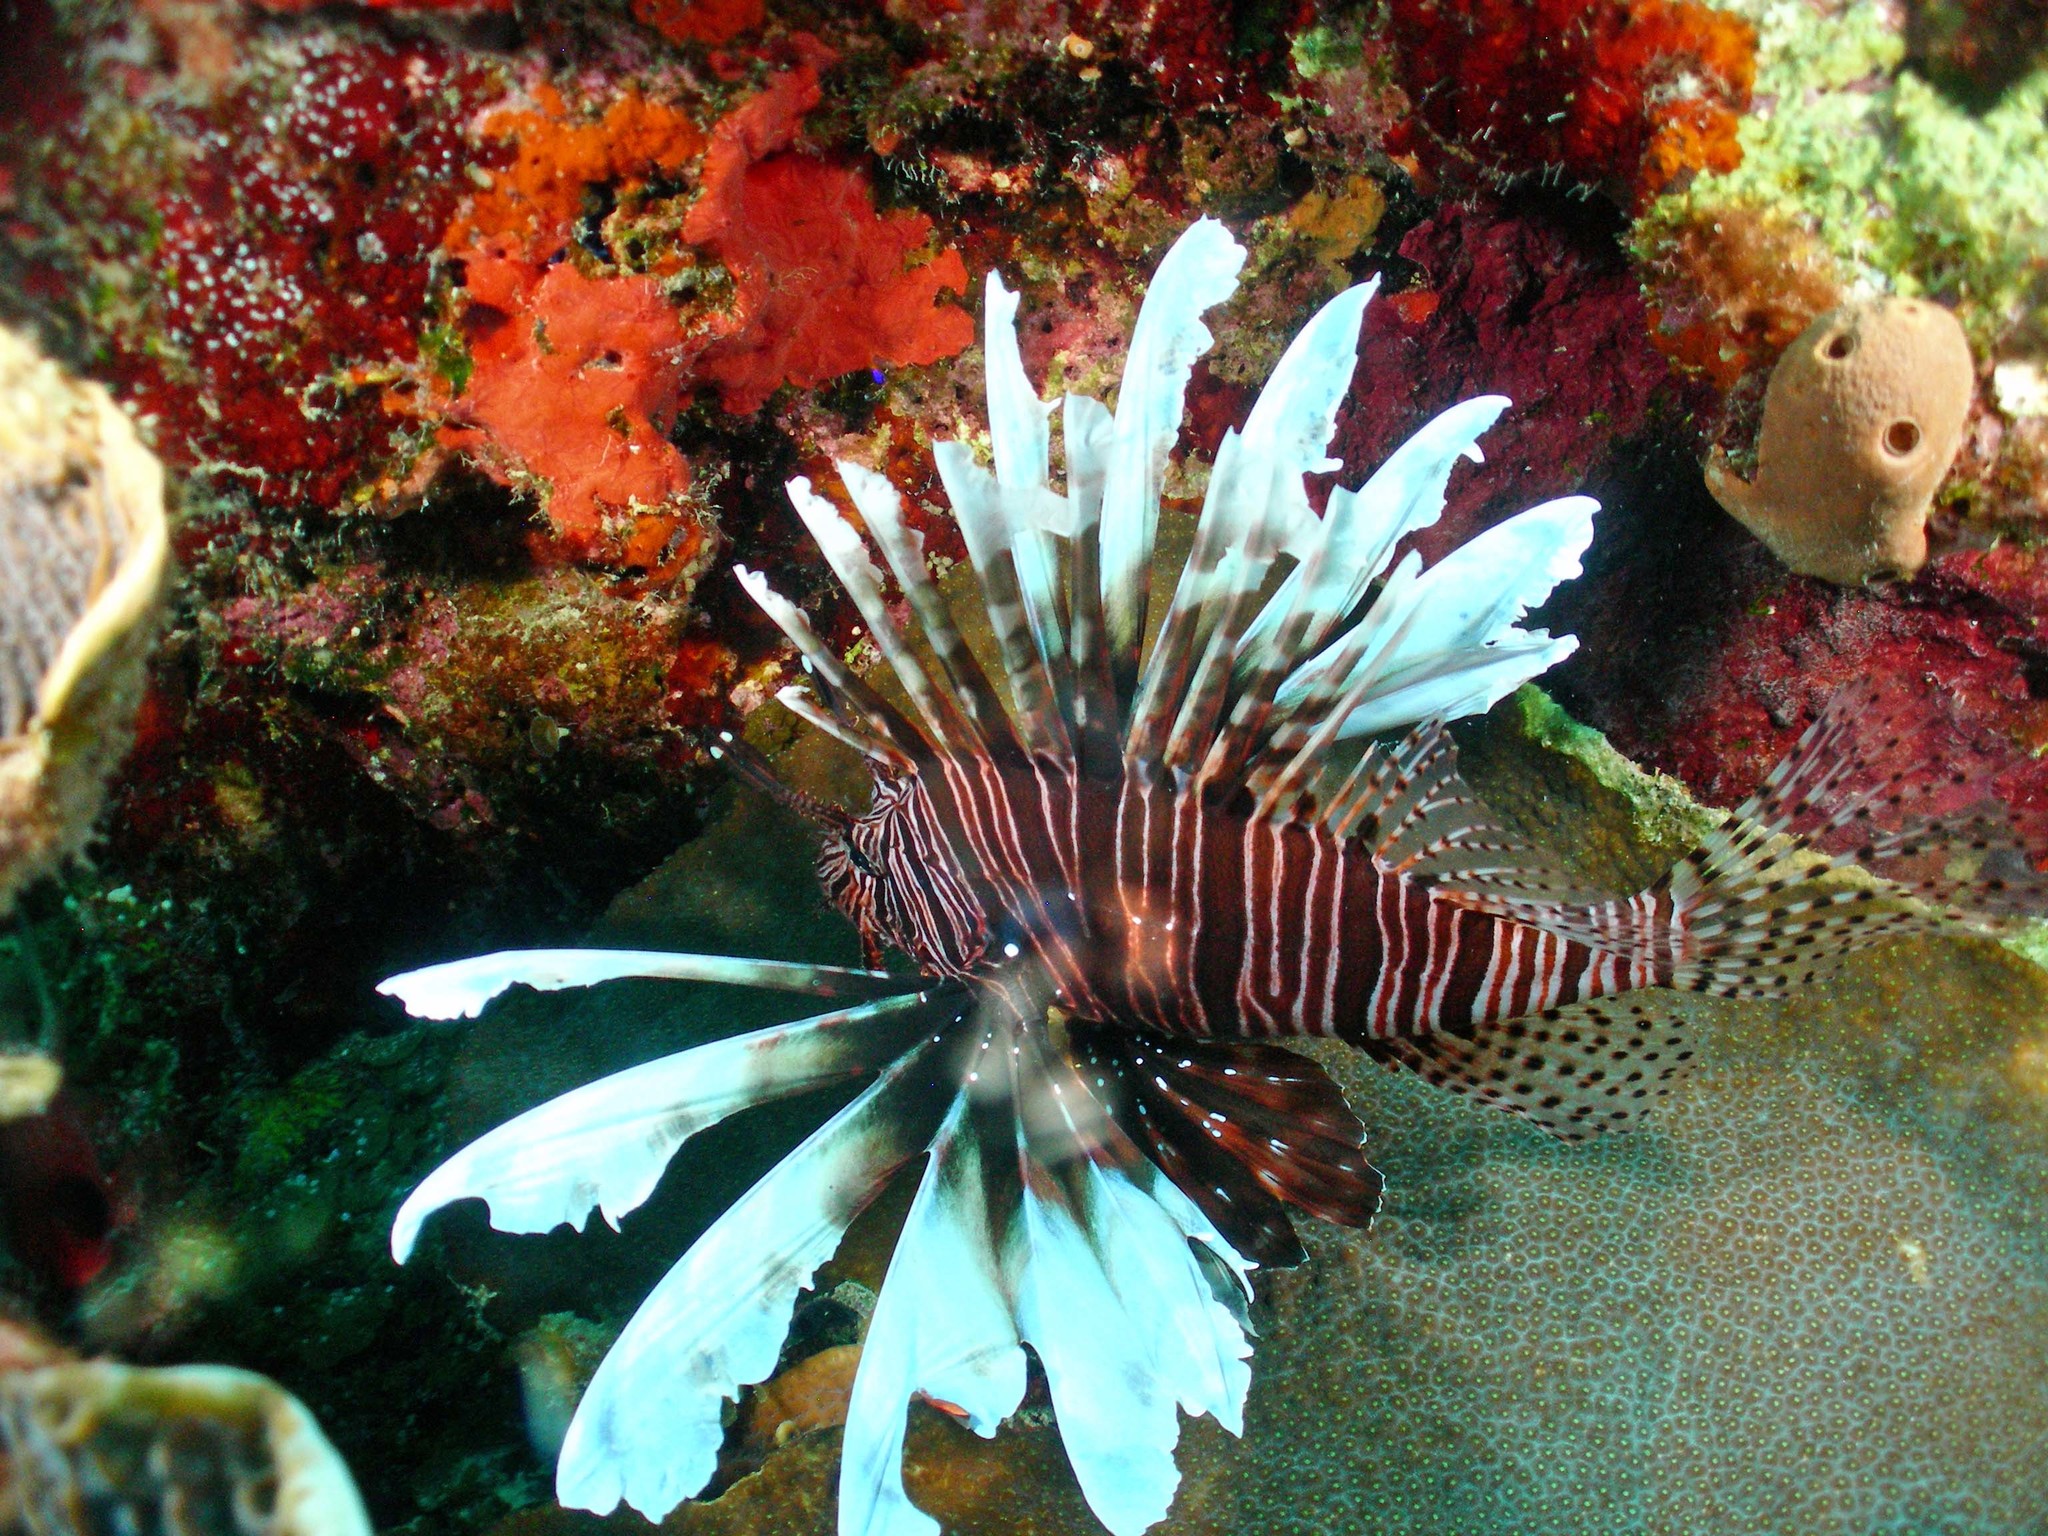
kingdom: Animalia
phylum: Chordata
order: Scorpaeniformes
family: Scorpaenidae
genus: Pterois
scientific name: Pterois volitans
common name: Lionfish
